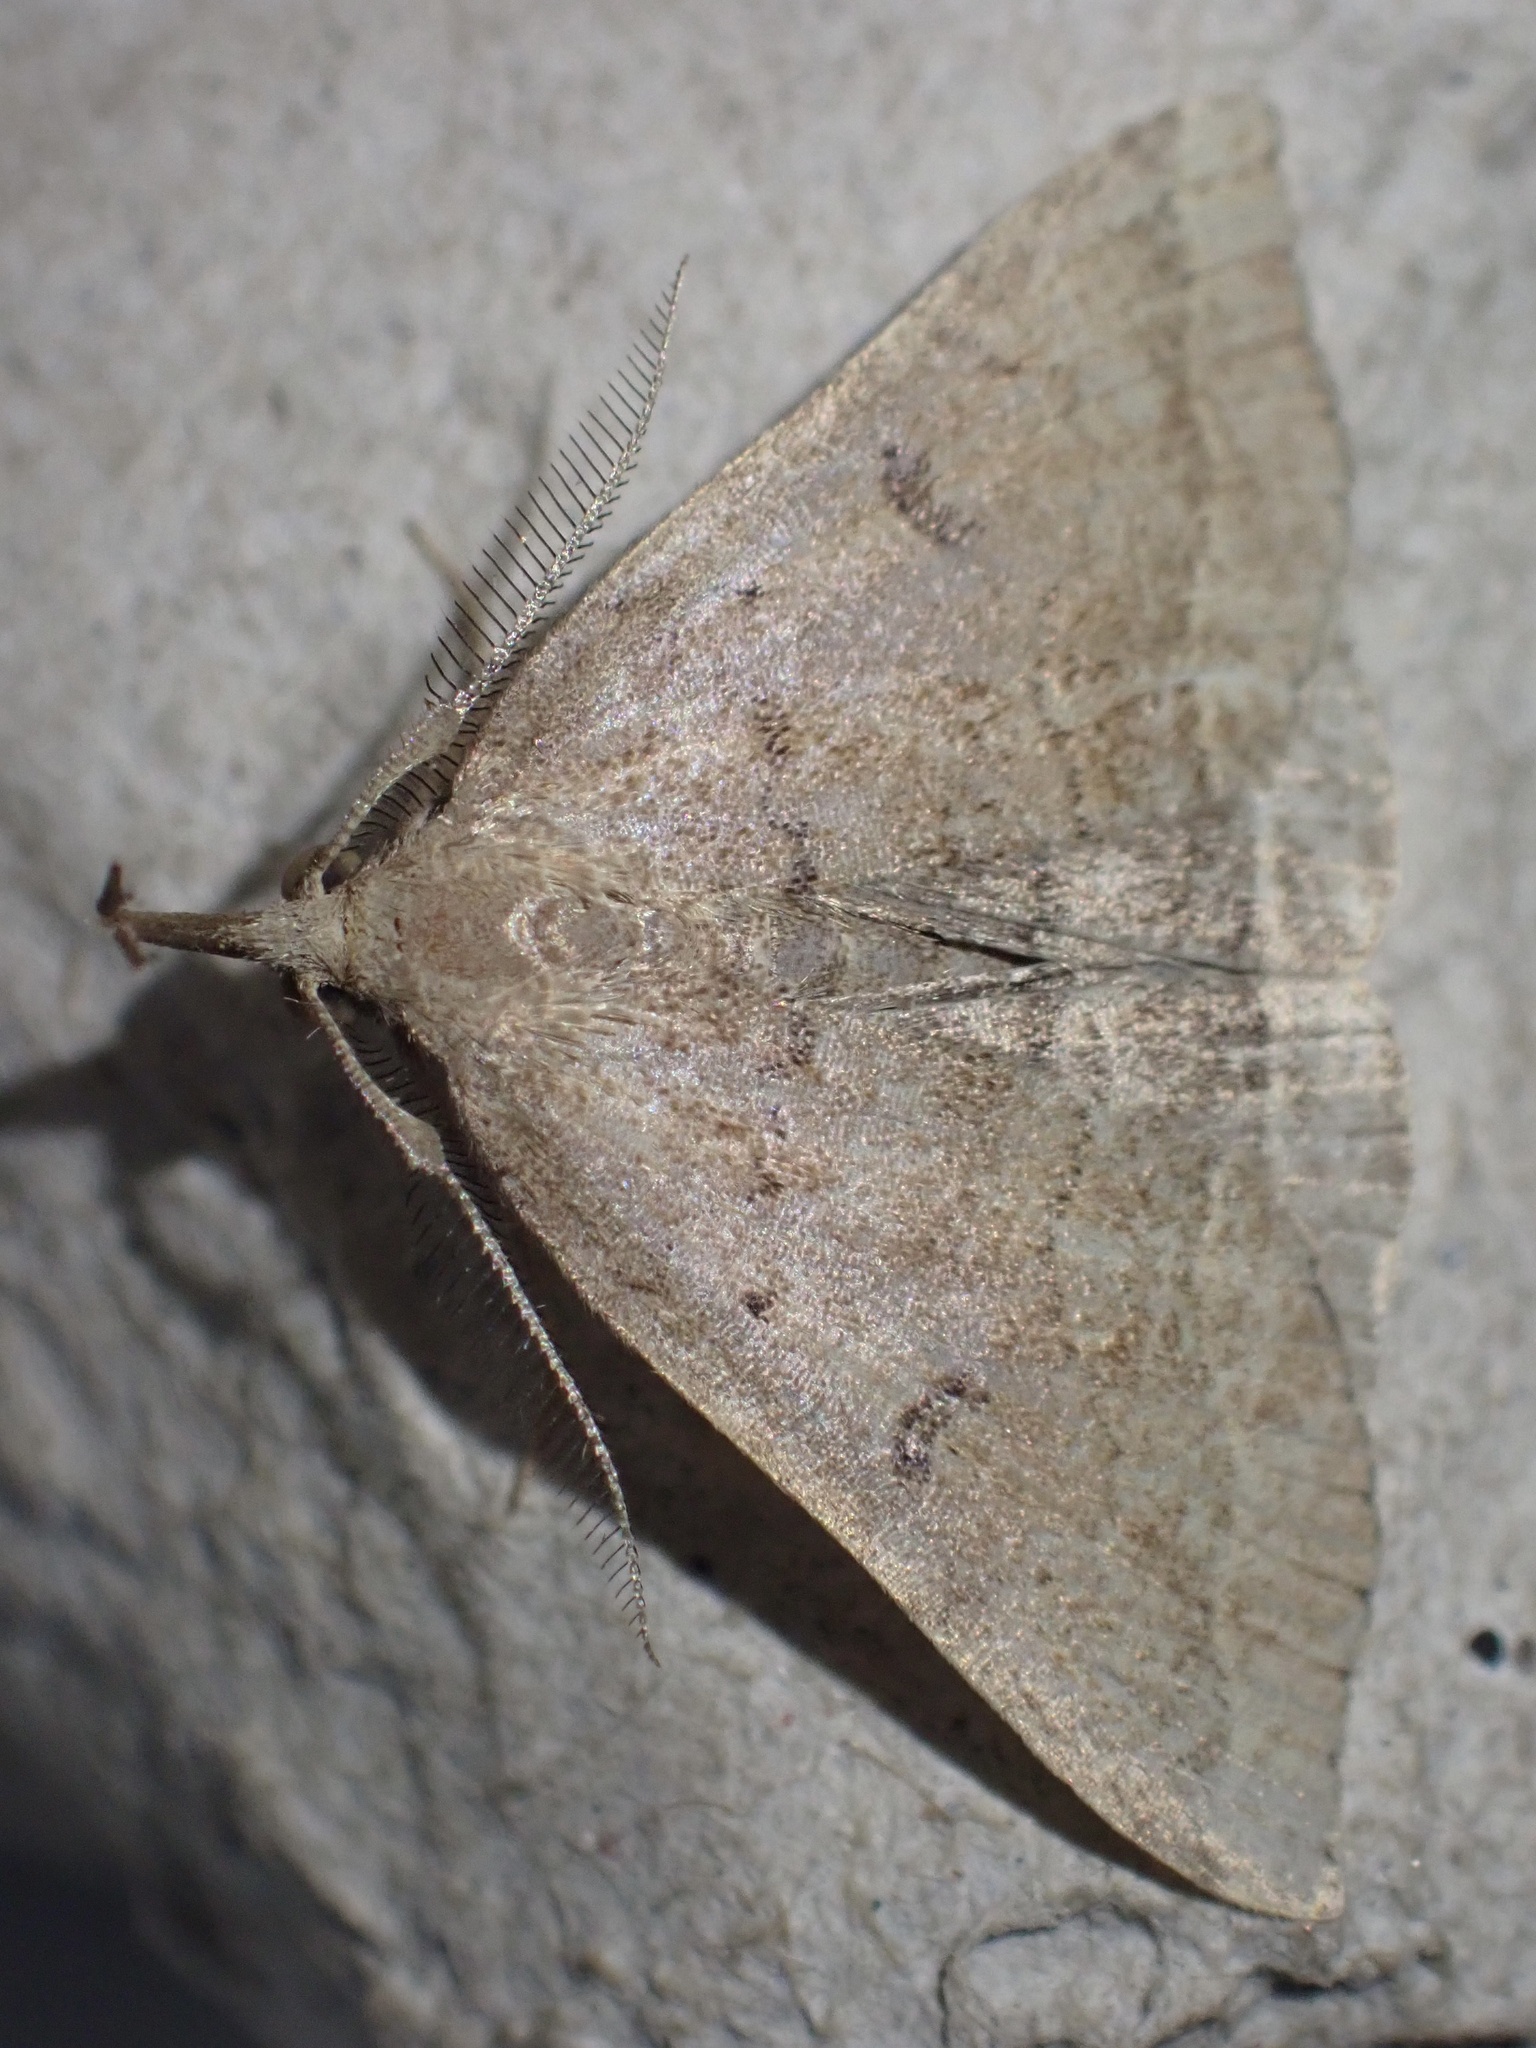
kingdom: Animalia
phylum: Arthropoda
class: Insecta
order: Lepidoptera
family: Erebidae
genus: Pechipogo
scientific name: Pechipogo plumigeralis
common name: Plumed fan-foot
